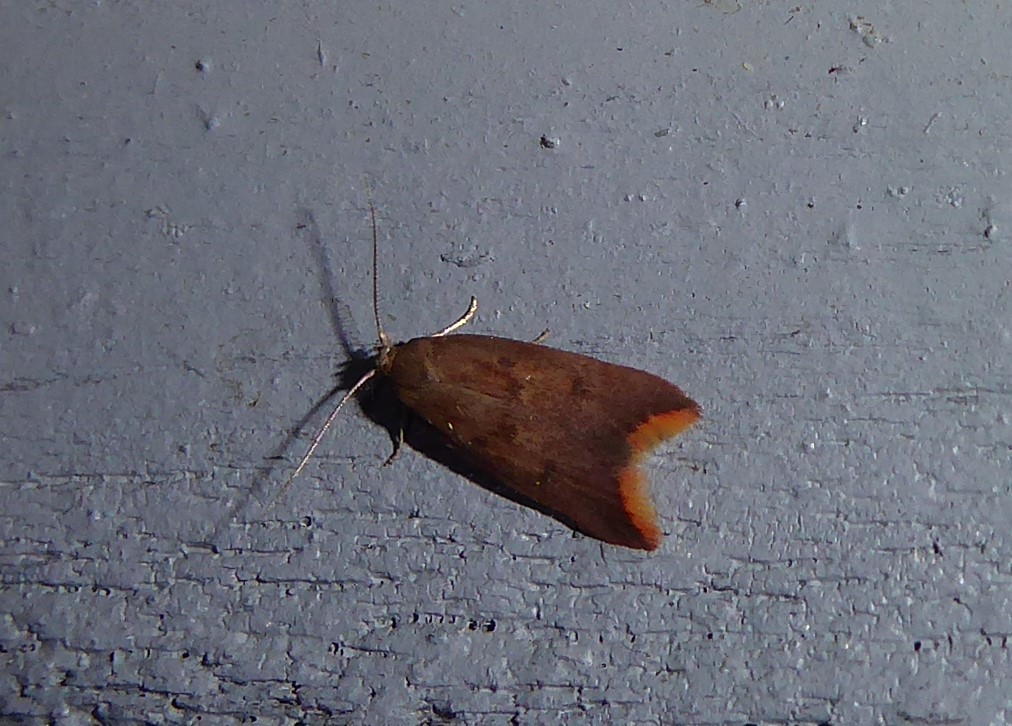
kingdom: Animalia
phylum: Arthropoda
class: Insecta
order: Lepidoptera
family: Oecophoridae
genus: Tachystola
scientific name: Tachystola acroxantha
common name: Ruddy streak
